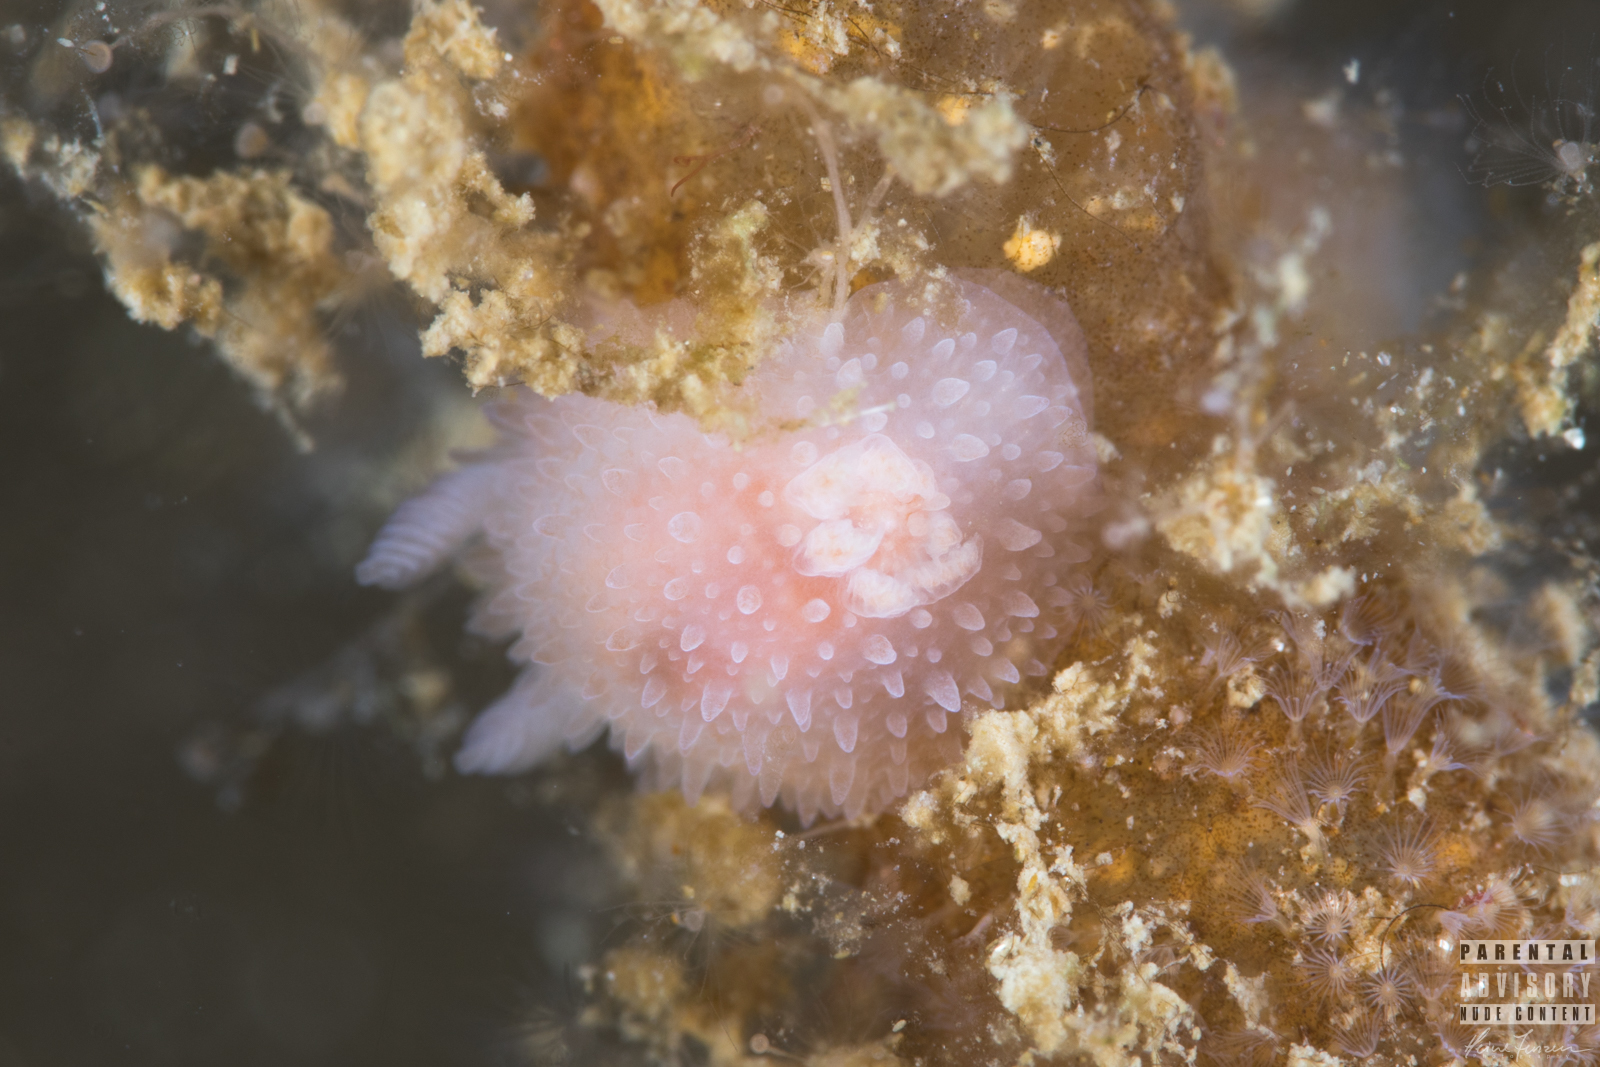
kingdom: Animalia
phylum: Mollusca
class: Gastropoda
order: Nudibranchia
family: Onchidorididae
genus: Acanthodoris
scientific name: Acanthodoris pilosa
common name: Hairy spiny doris
